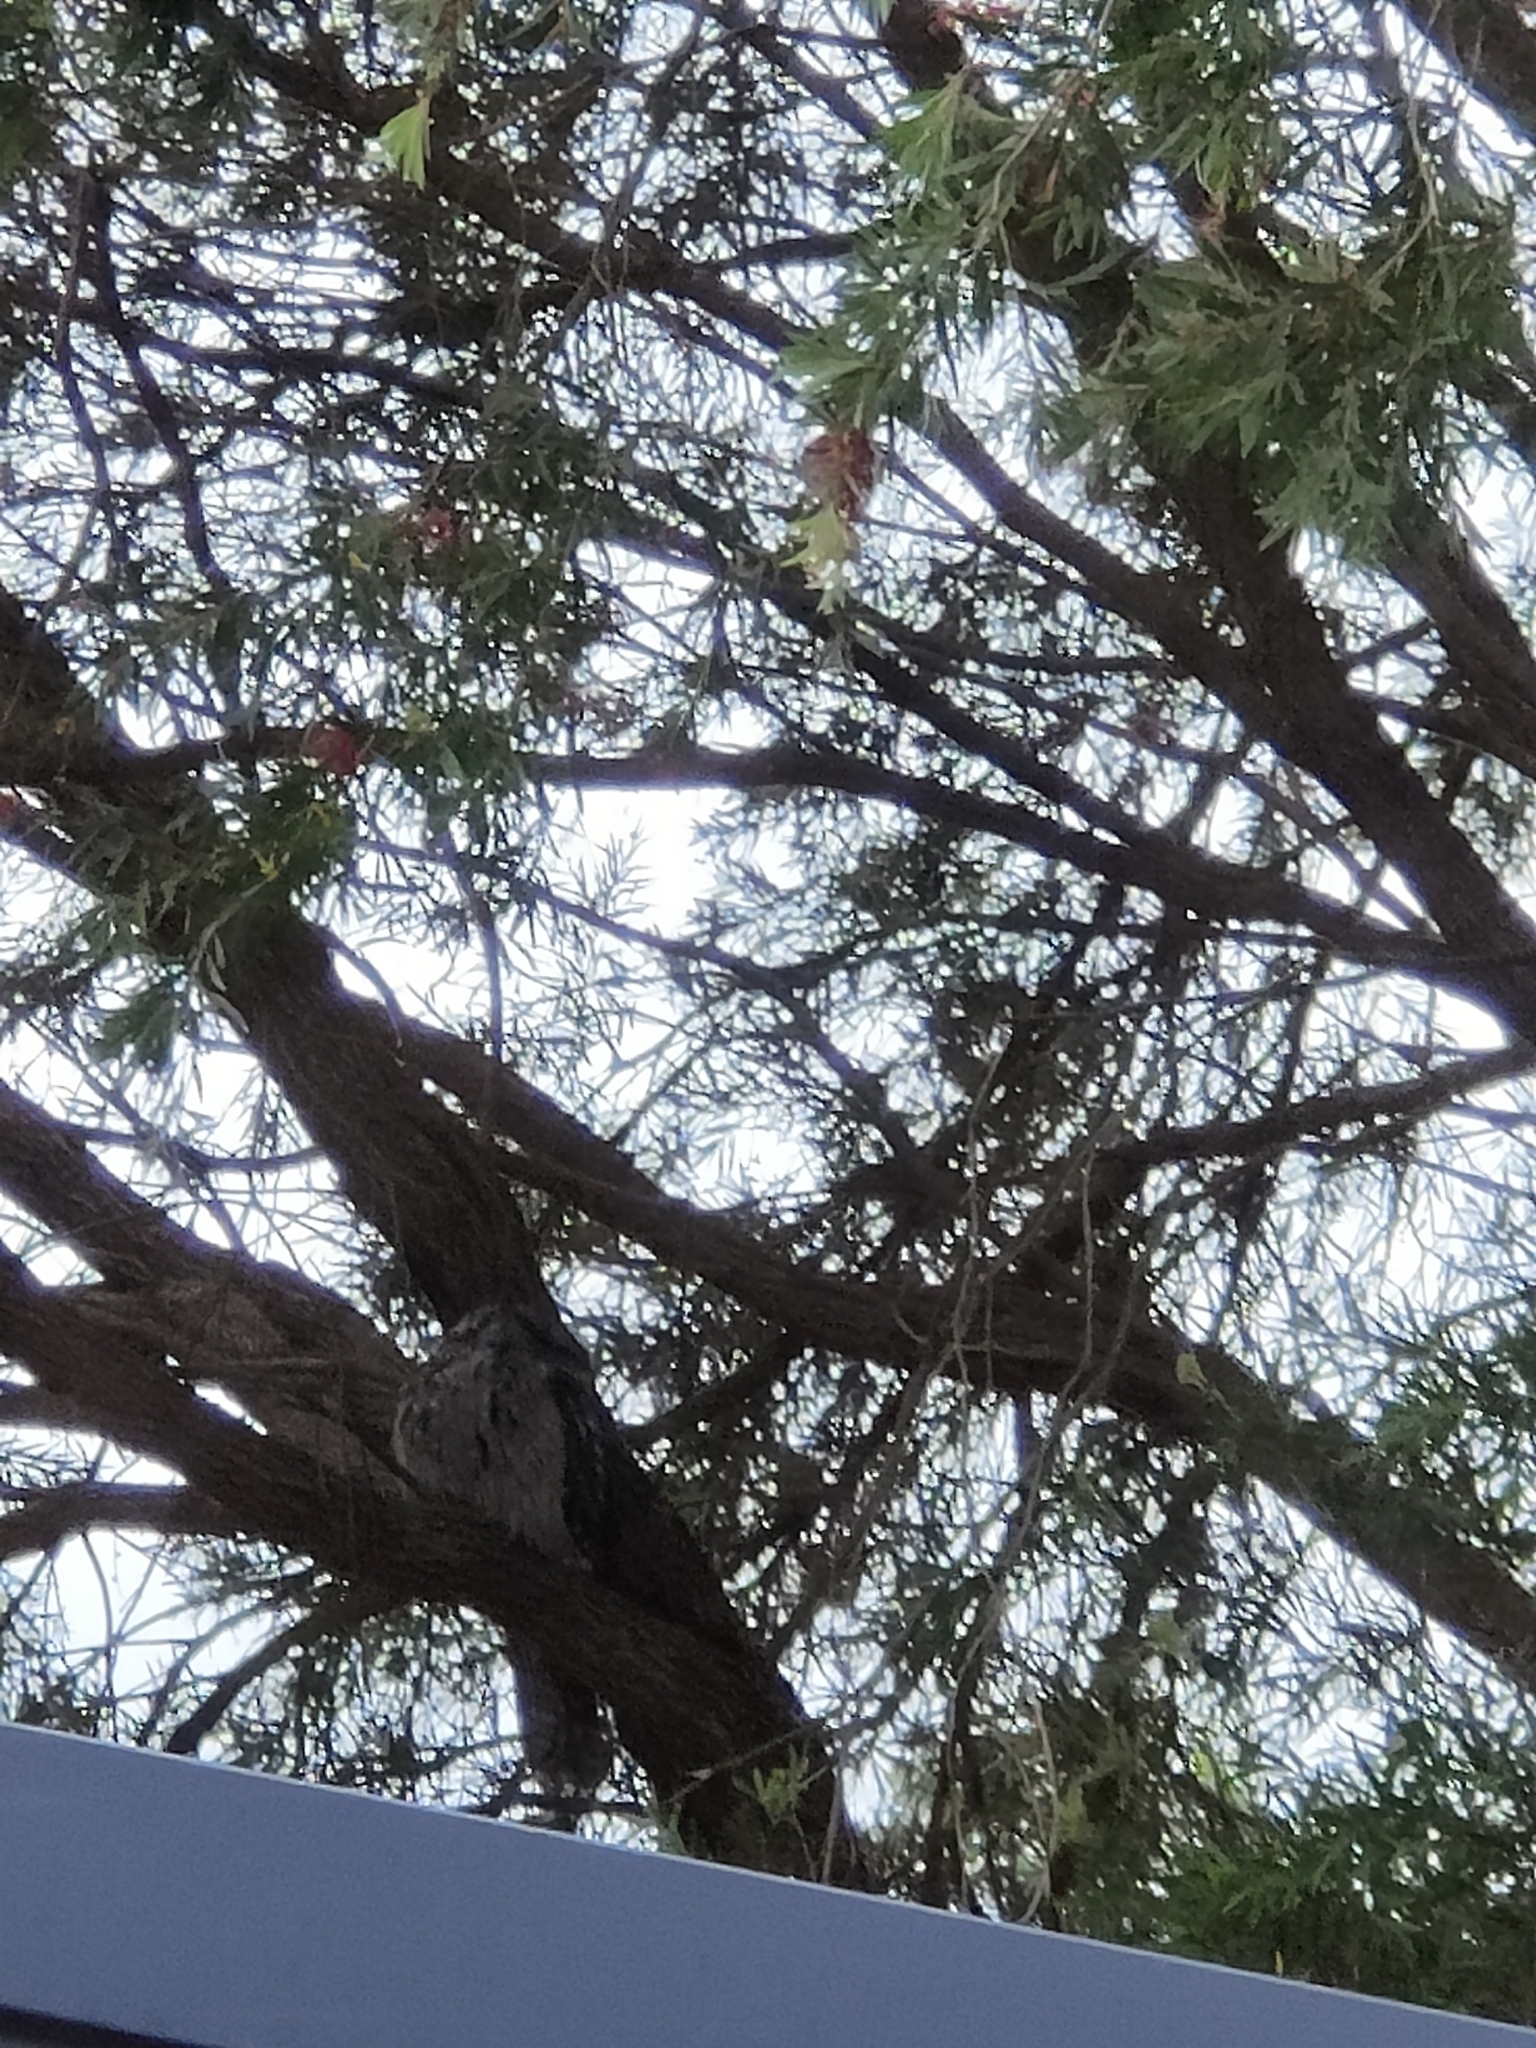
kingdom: Animalia
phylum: Chordata
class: Aves
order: Caprimulgiformes
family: Podargidae
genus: Podargus
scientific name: Podargus strigoides
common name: Tawny frogmouth
